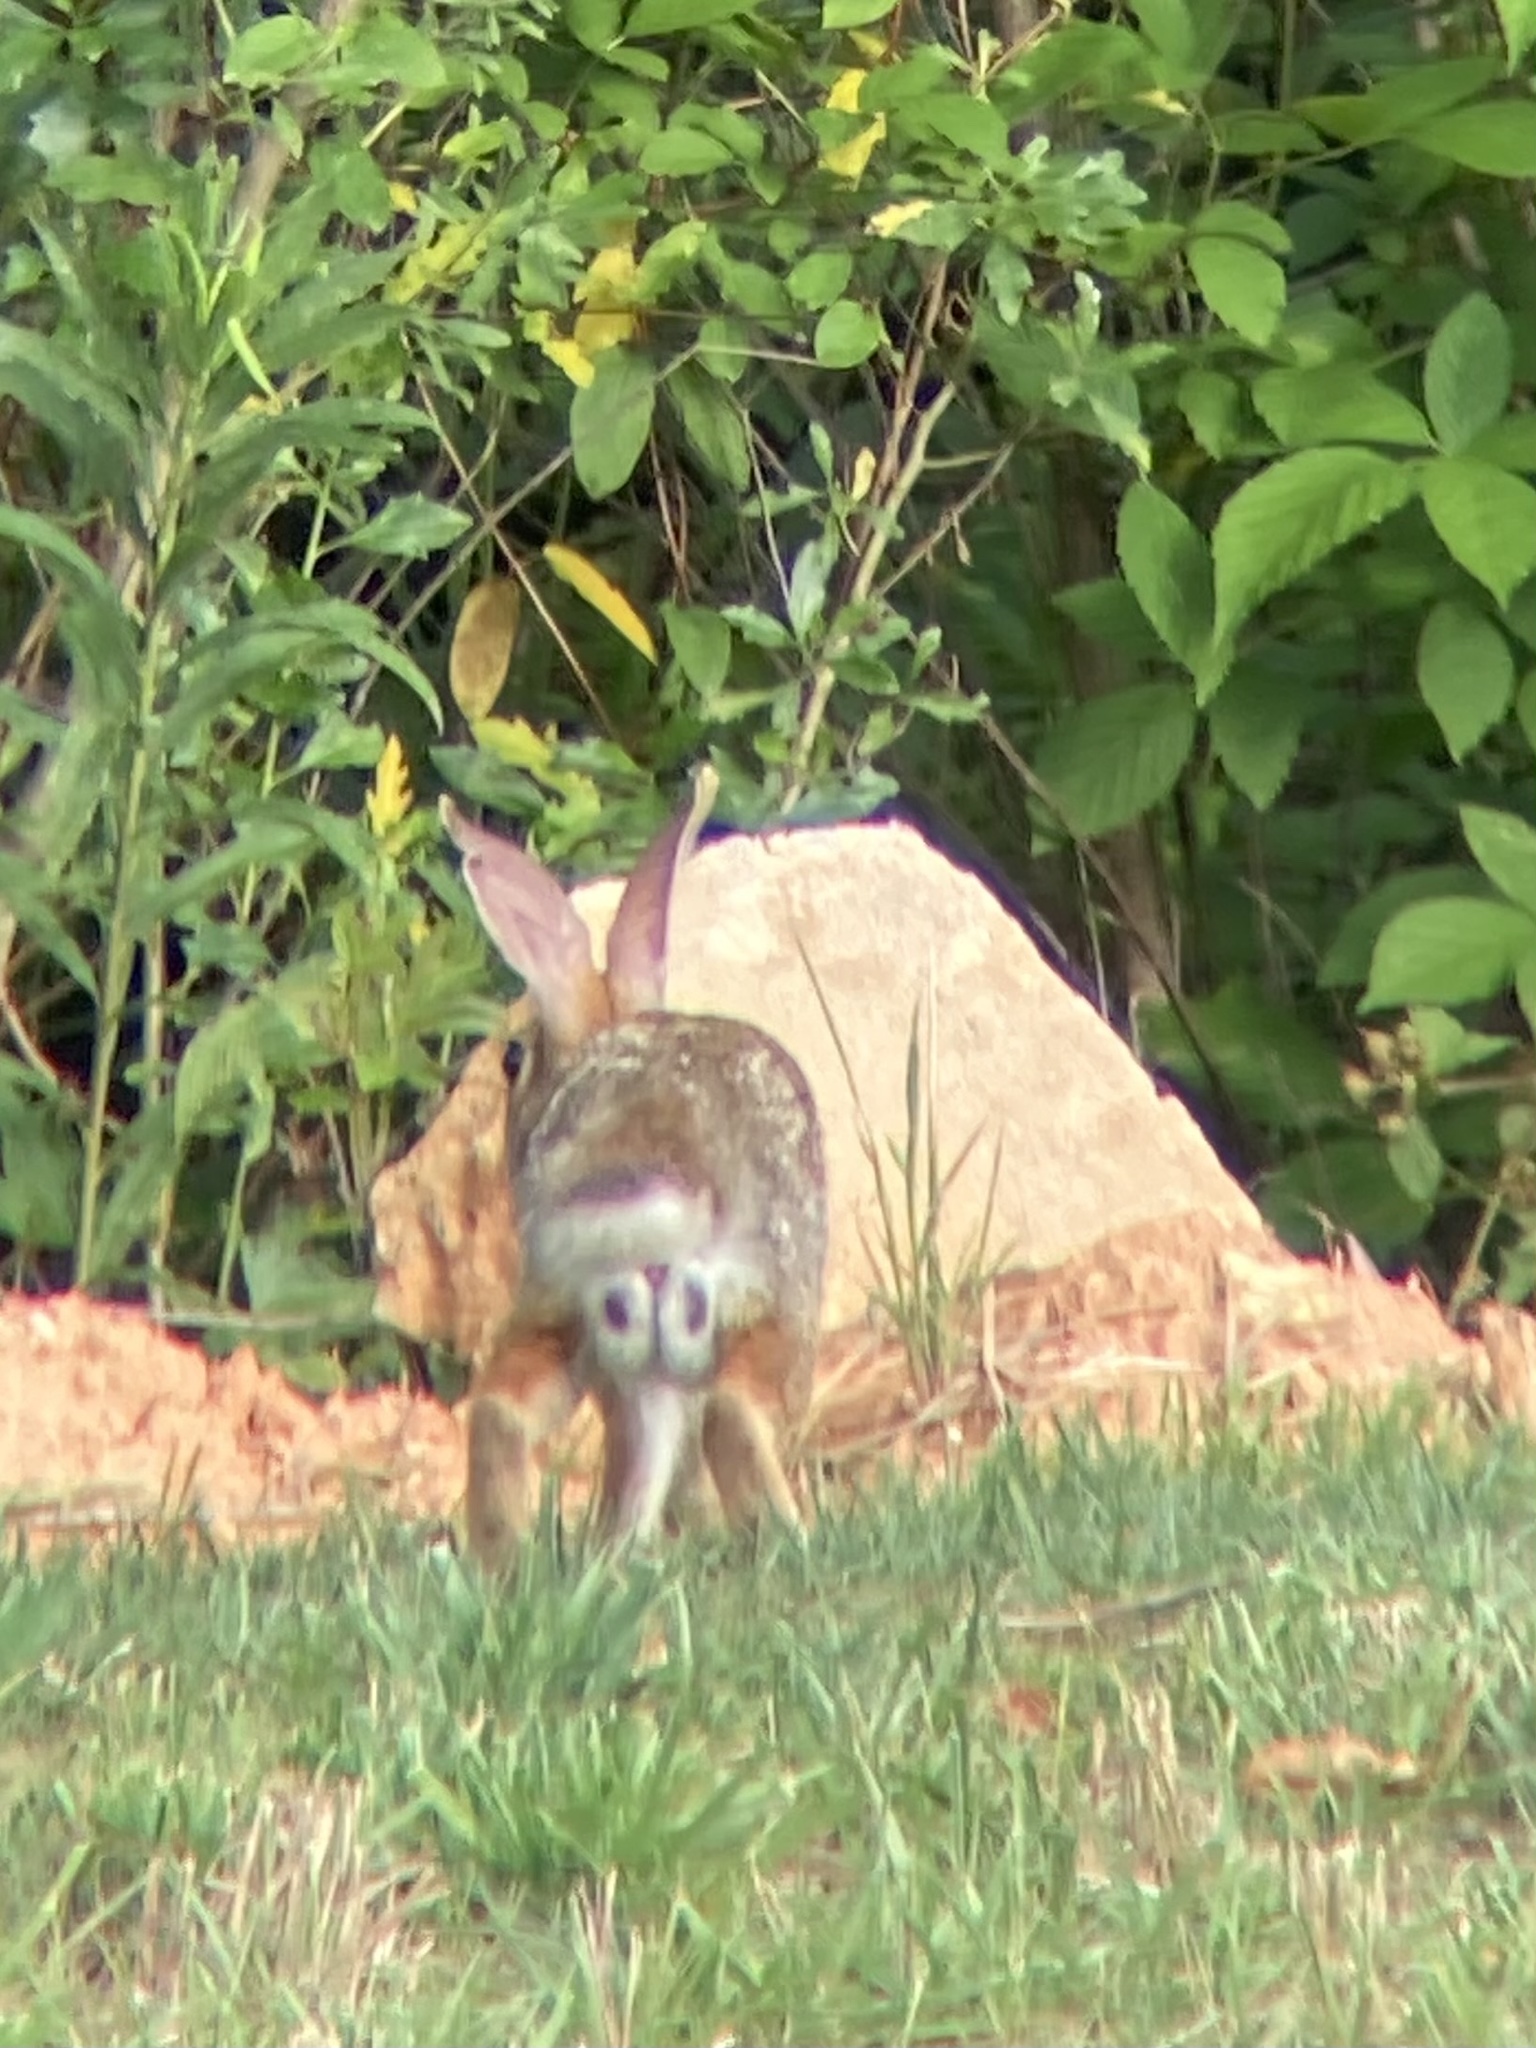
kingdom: Animalia
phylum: Chordata
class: Mammalia
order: Lagomorpha
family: Leporidae
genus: Sylvilagus
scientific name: Sylvilagus floridanus
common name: Eastern cottontail
